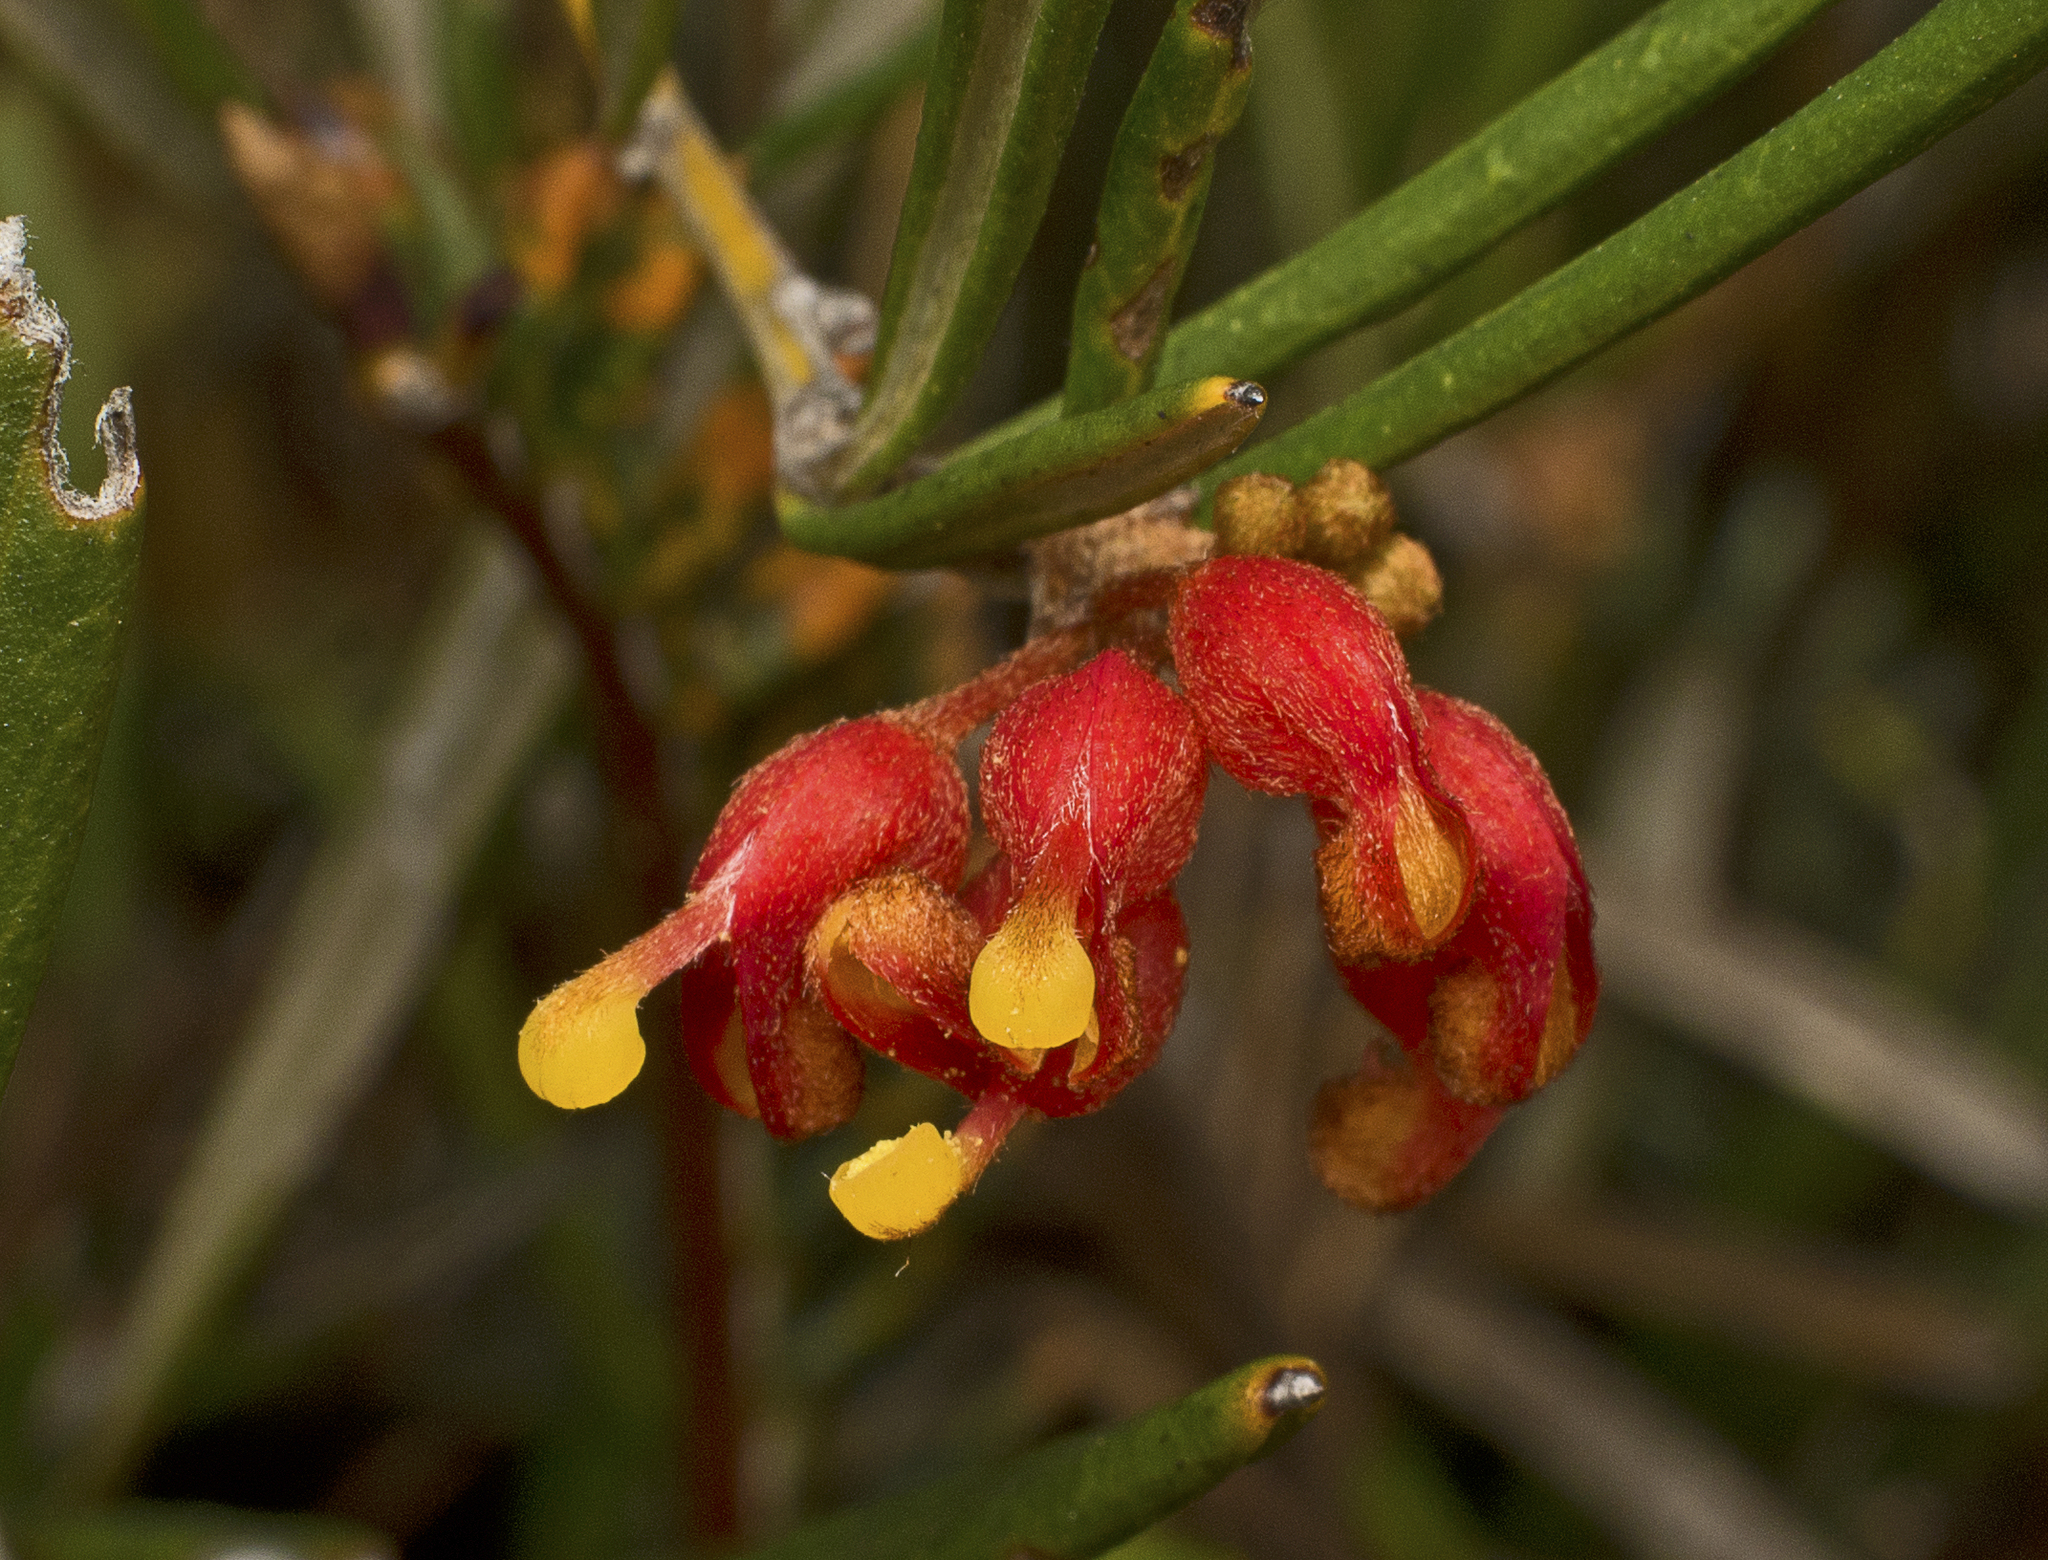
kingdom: Plantae
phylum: Tracheophyta
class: Magnoliopsida
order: Proteales
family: Proteaceae
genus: Grevillea
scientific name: Grevillea fasciculata
